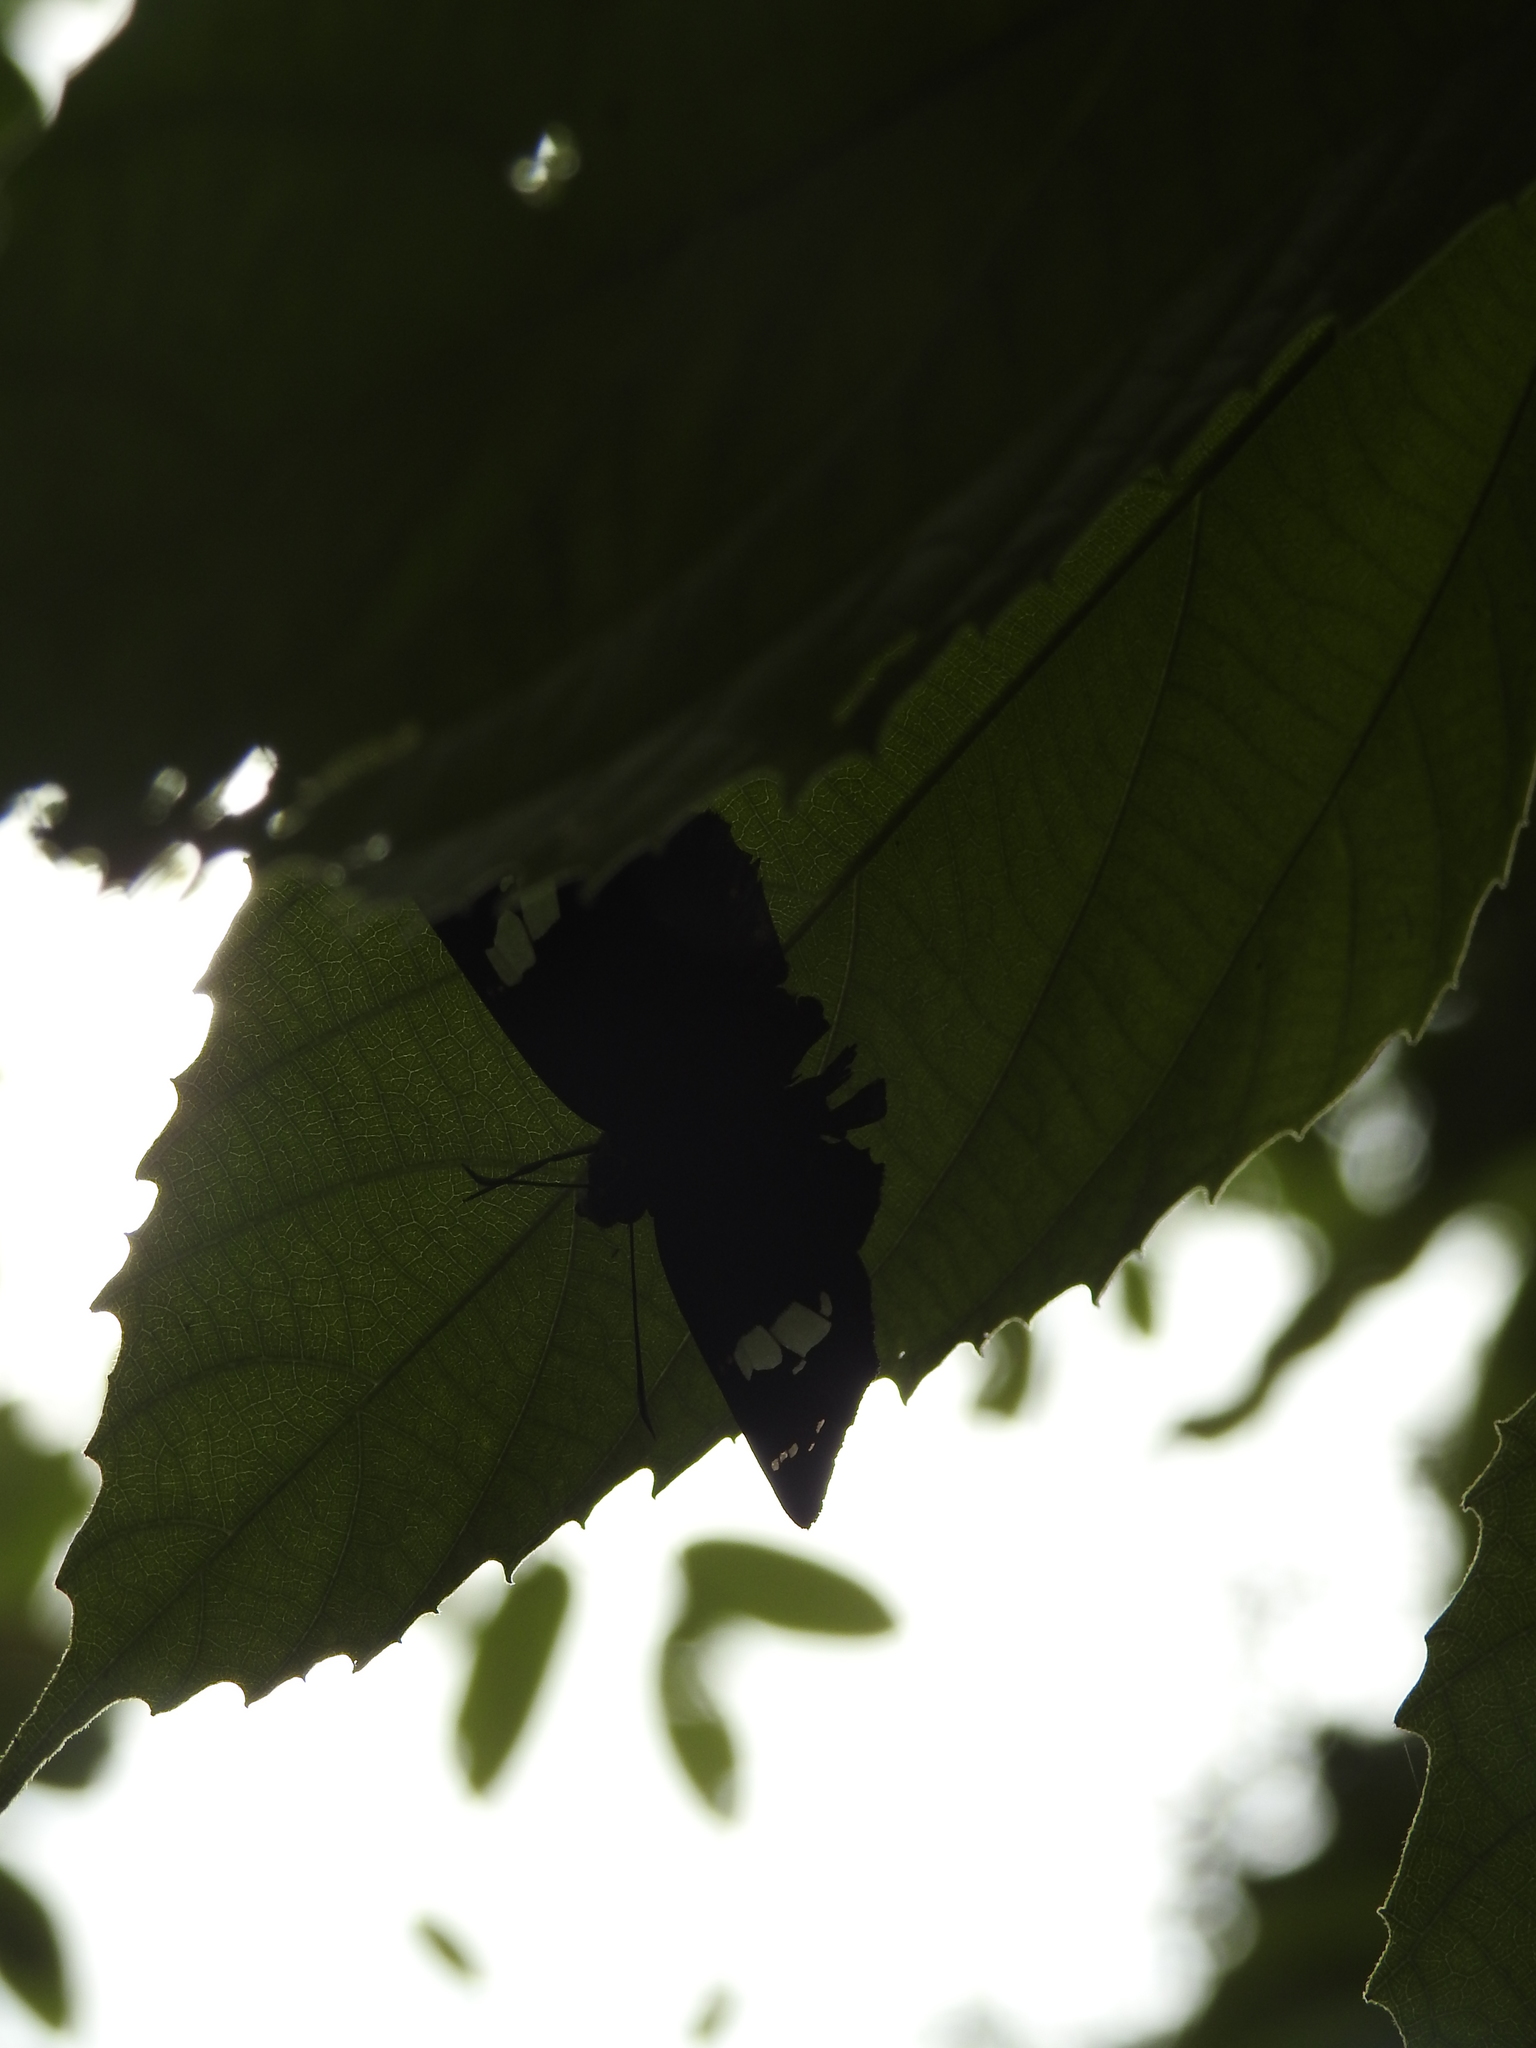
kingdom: Animalia
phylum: Arthropoda
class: Insecta
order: Lepidoptera
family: Hesperiidae
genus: Celaenorrhinus
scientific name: Celaenorrhinus leucocera
